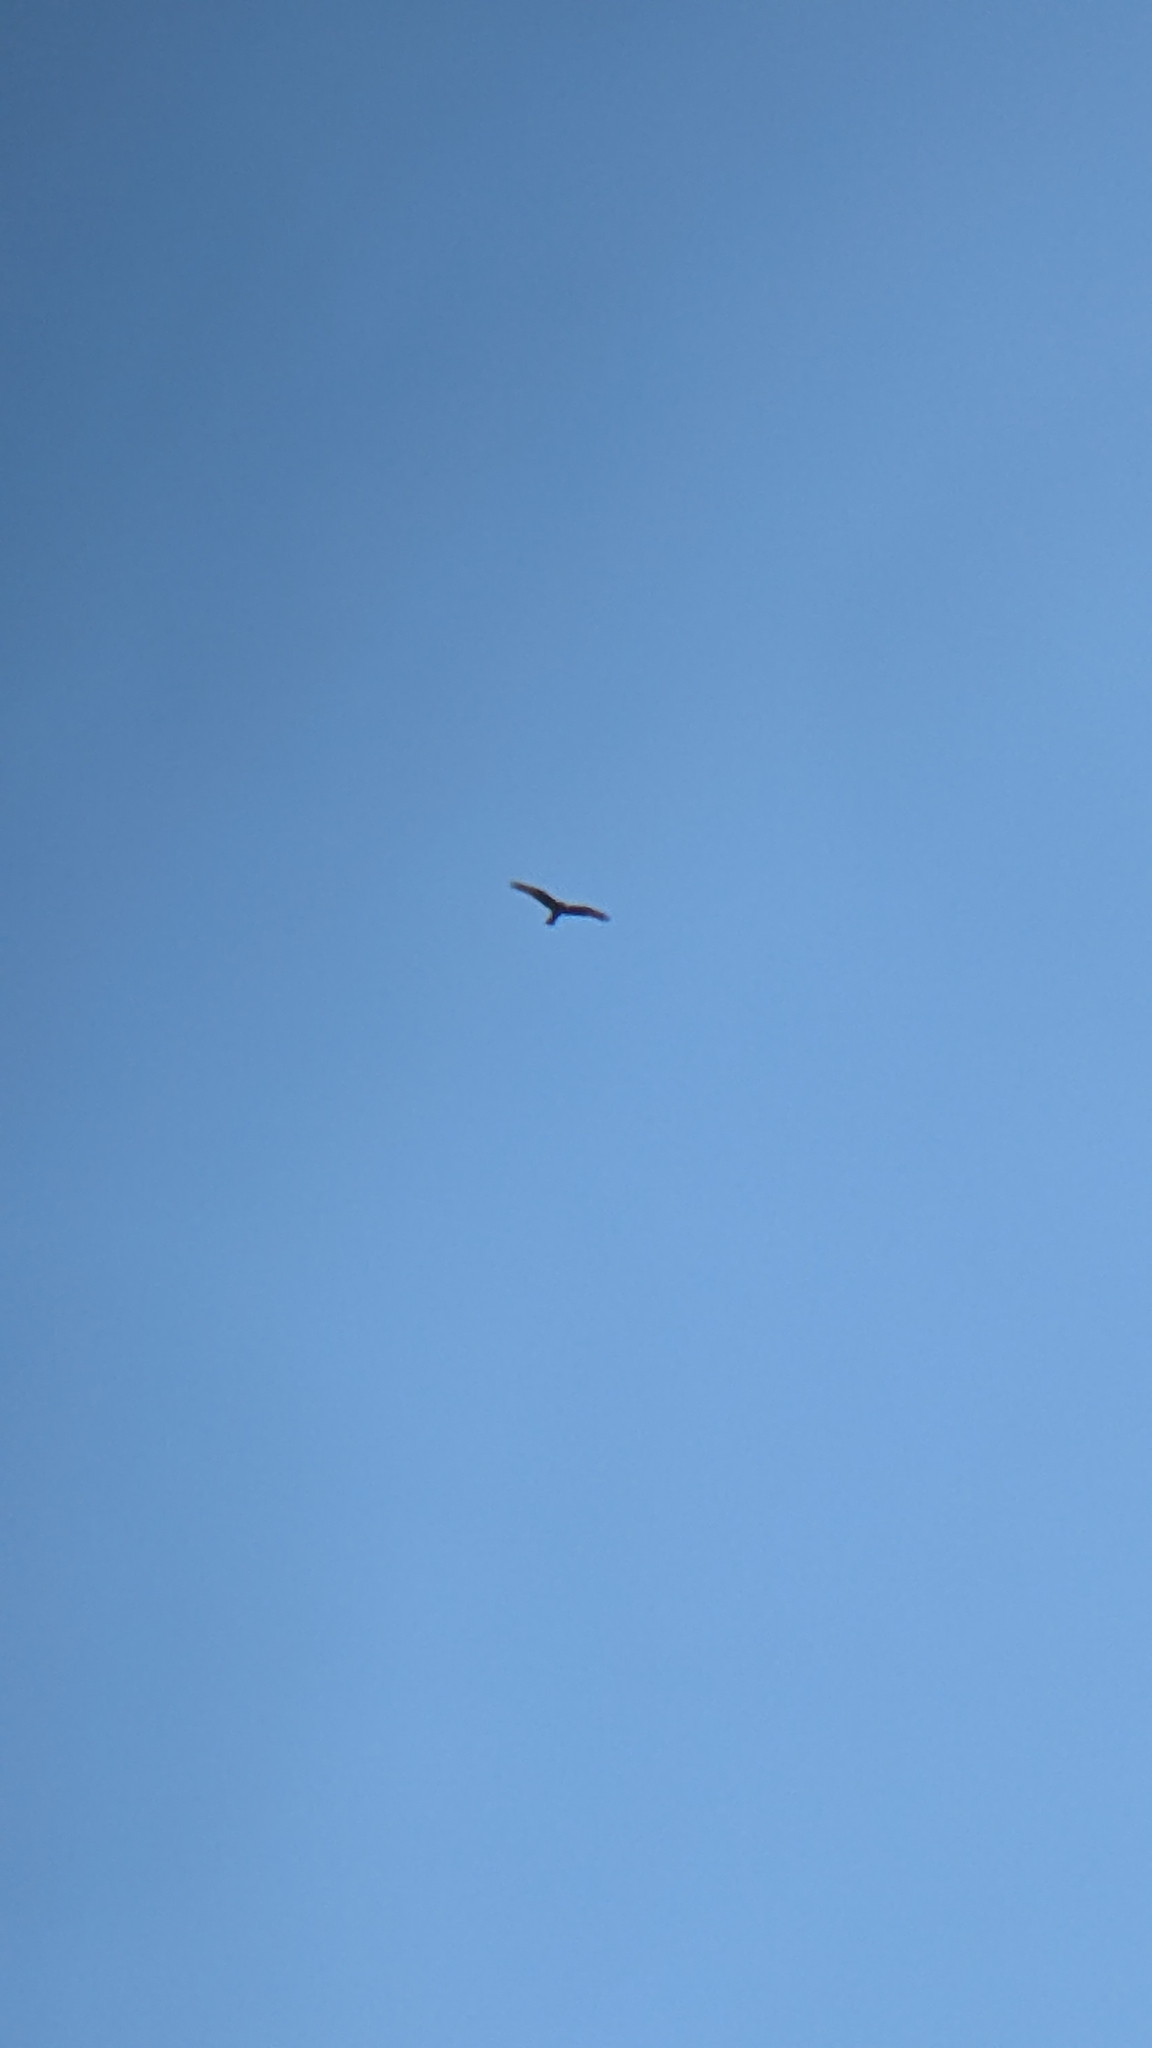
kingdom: Animalia
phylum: Chordata
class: Aves
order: Accipitriformes
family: Accipitridae
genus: Circus
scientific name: Circus approximans
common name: Swamp harrier
